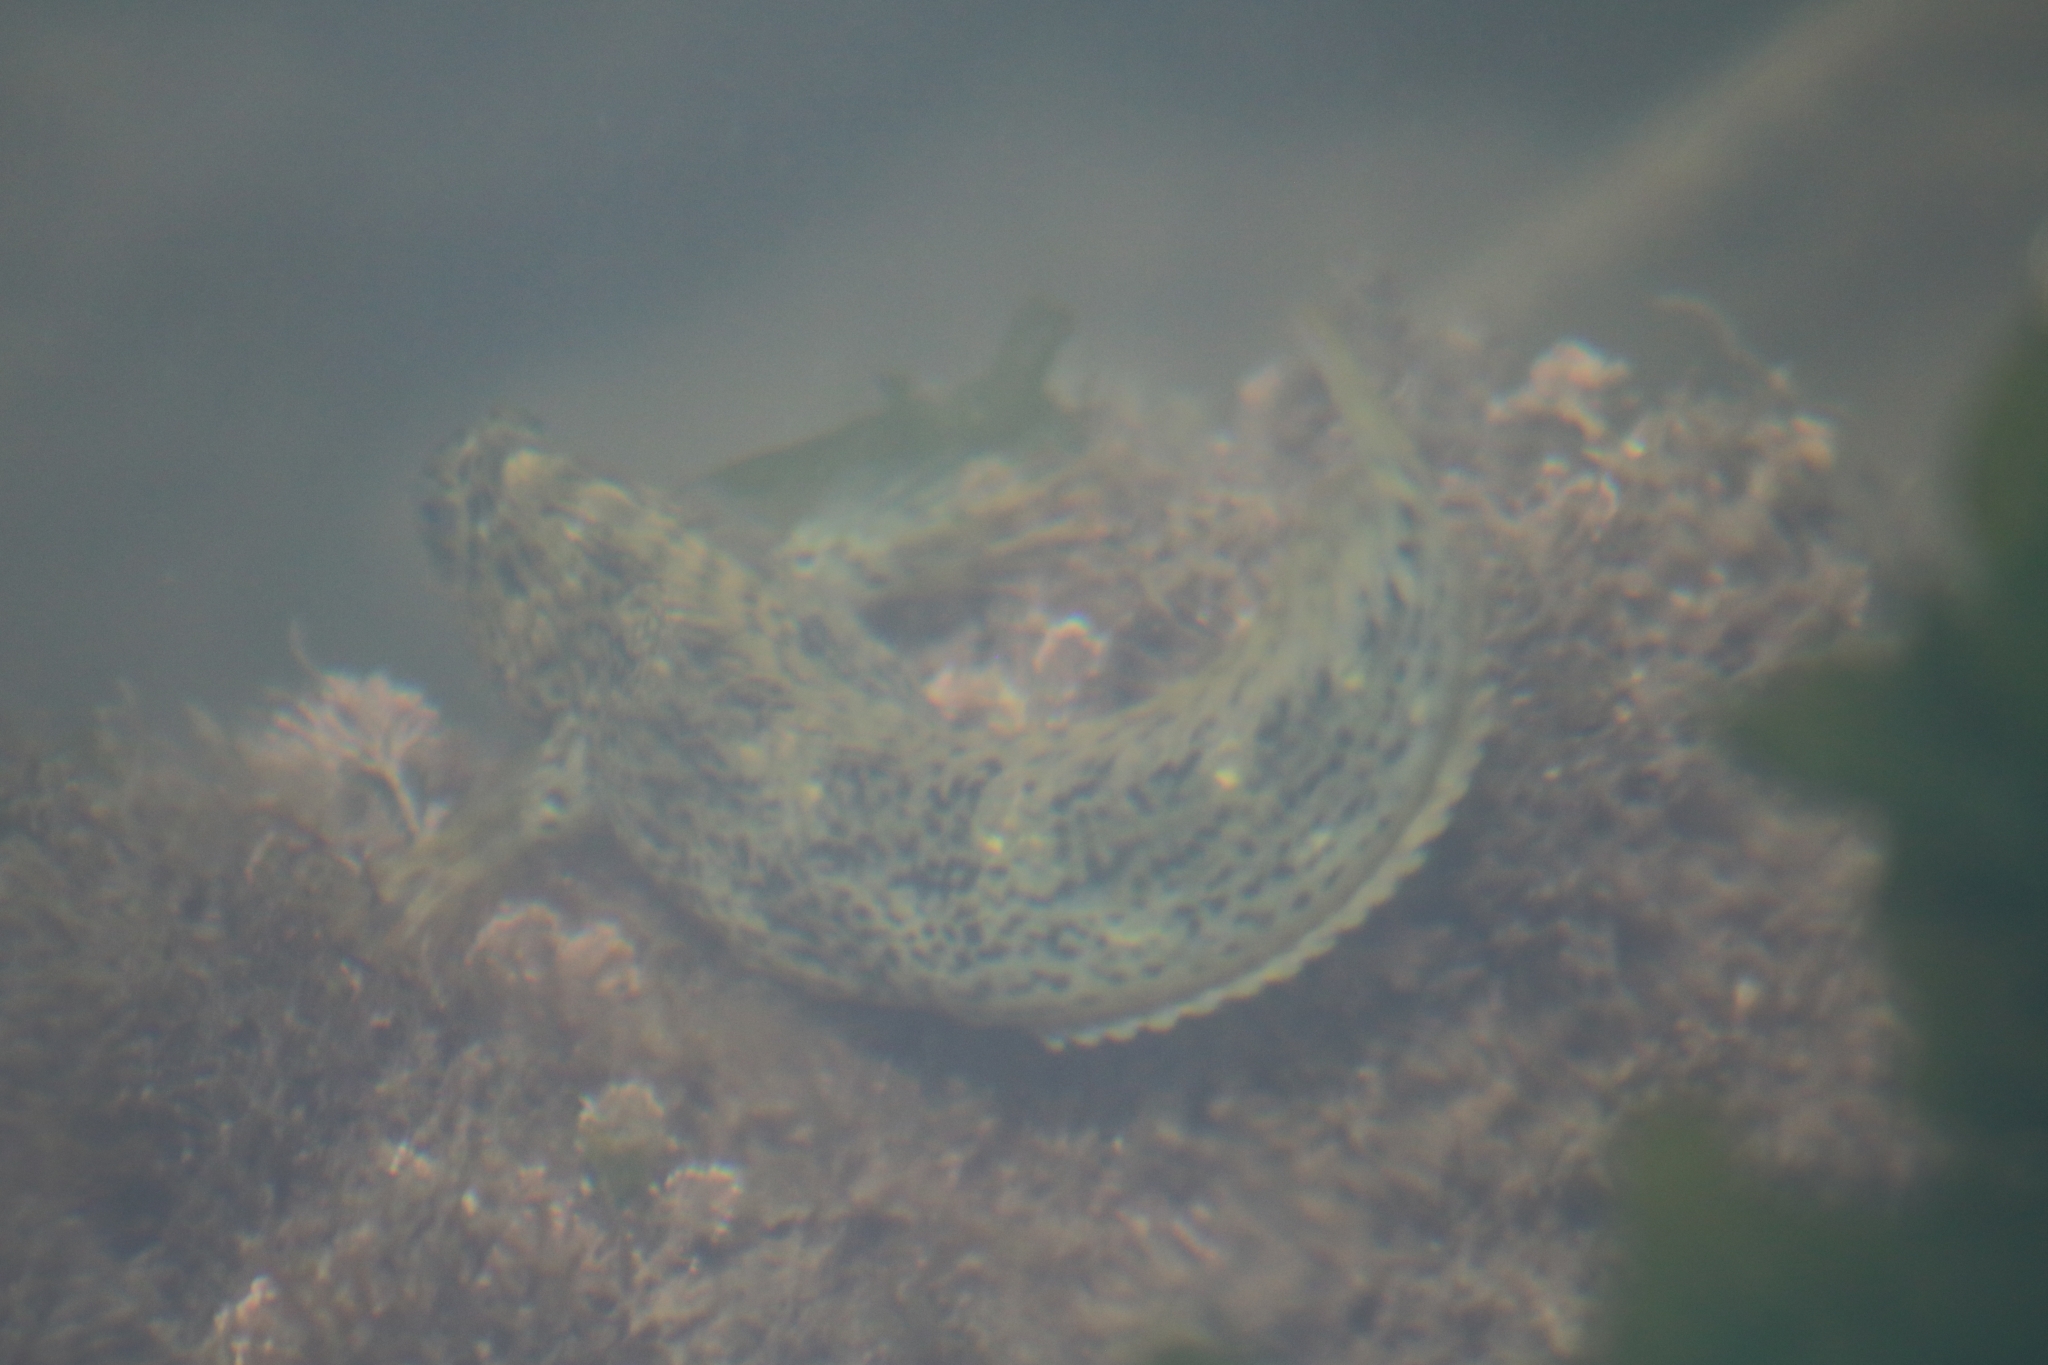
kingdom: Animalia
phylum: Chordata
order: Perciformes
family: Blenniidae
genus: Parablennius
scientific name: Parablennius sanguinolentus
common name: Black sea blenny
